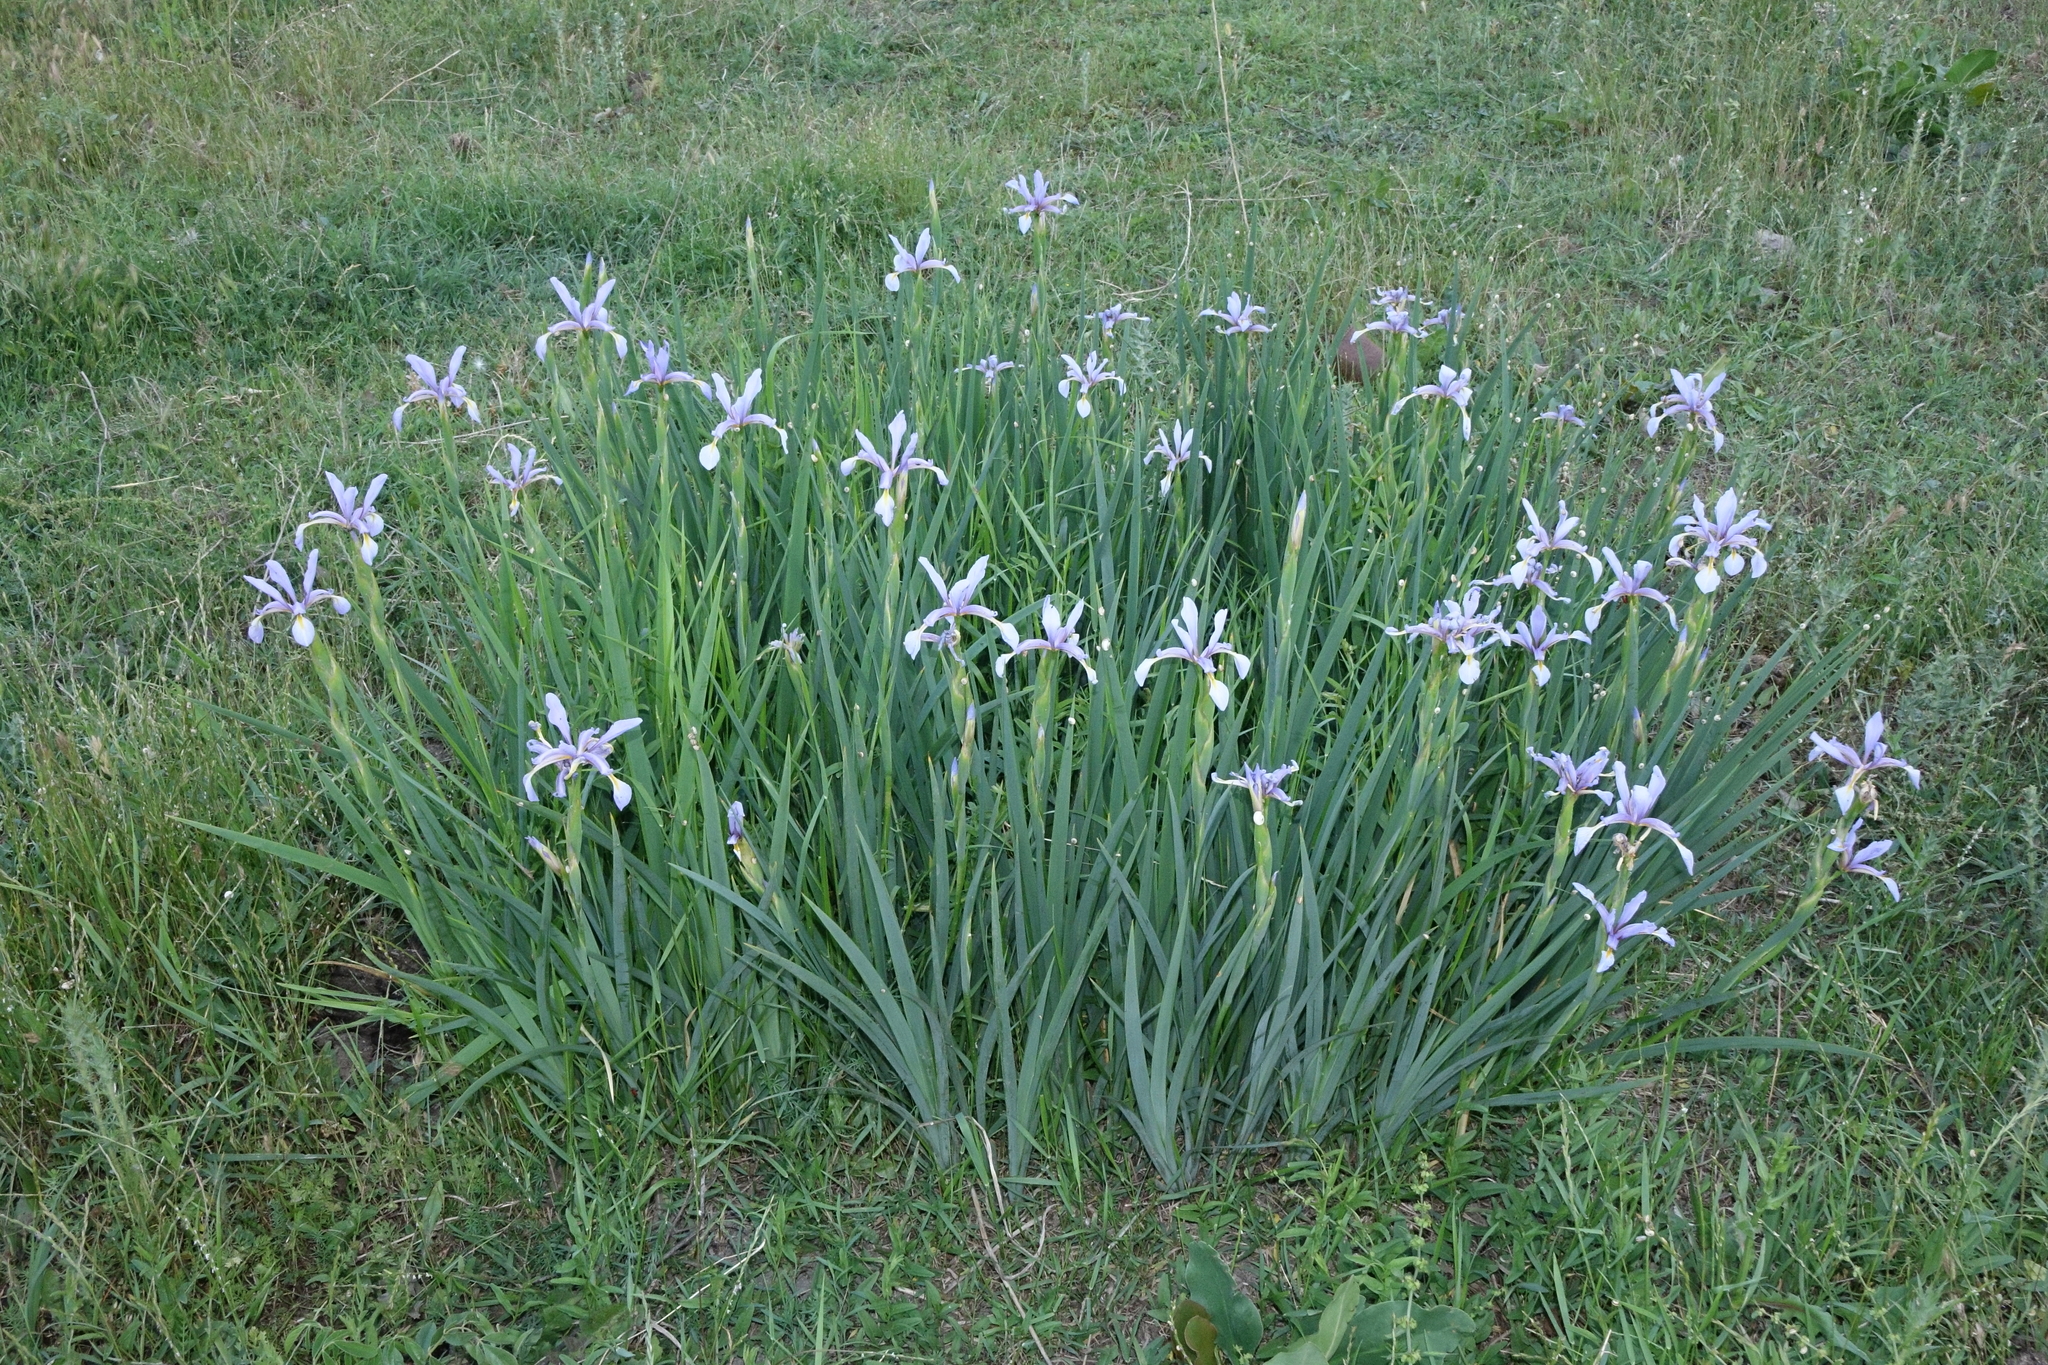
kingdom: Plantae
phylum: Tracheophyta
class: Liliopsida
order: Asparagales
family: Iridaceae
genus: Iris
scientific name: Iris pseudonotha
